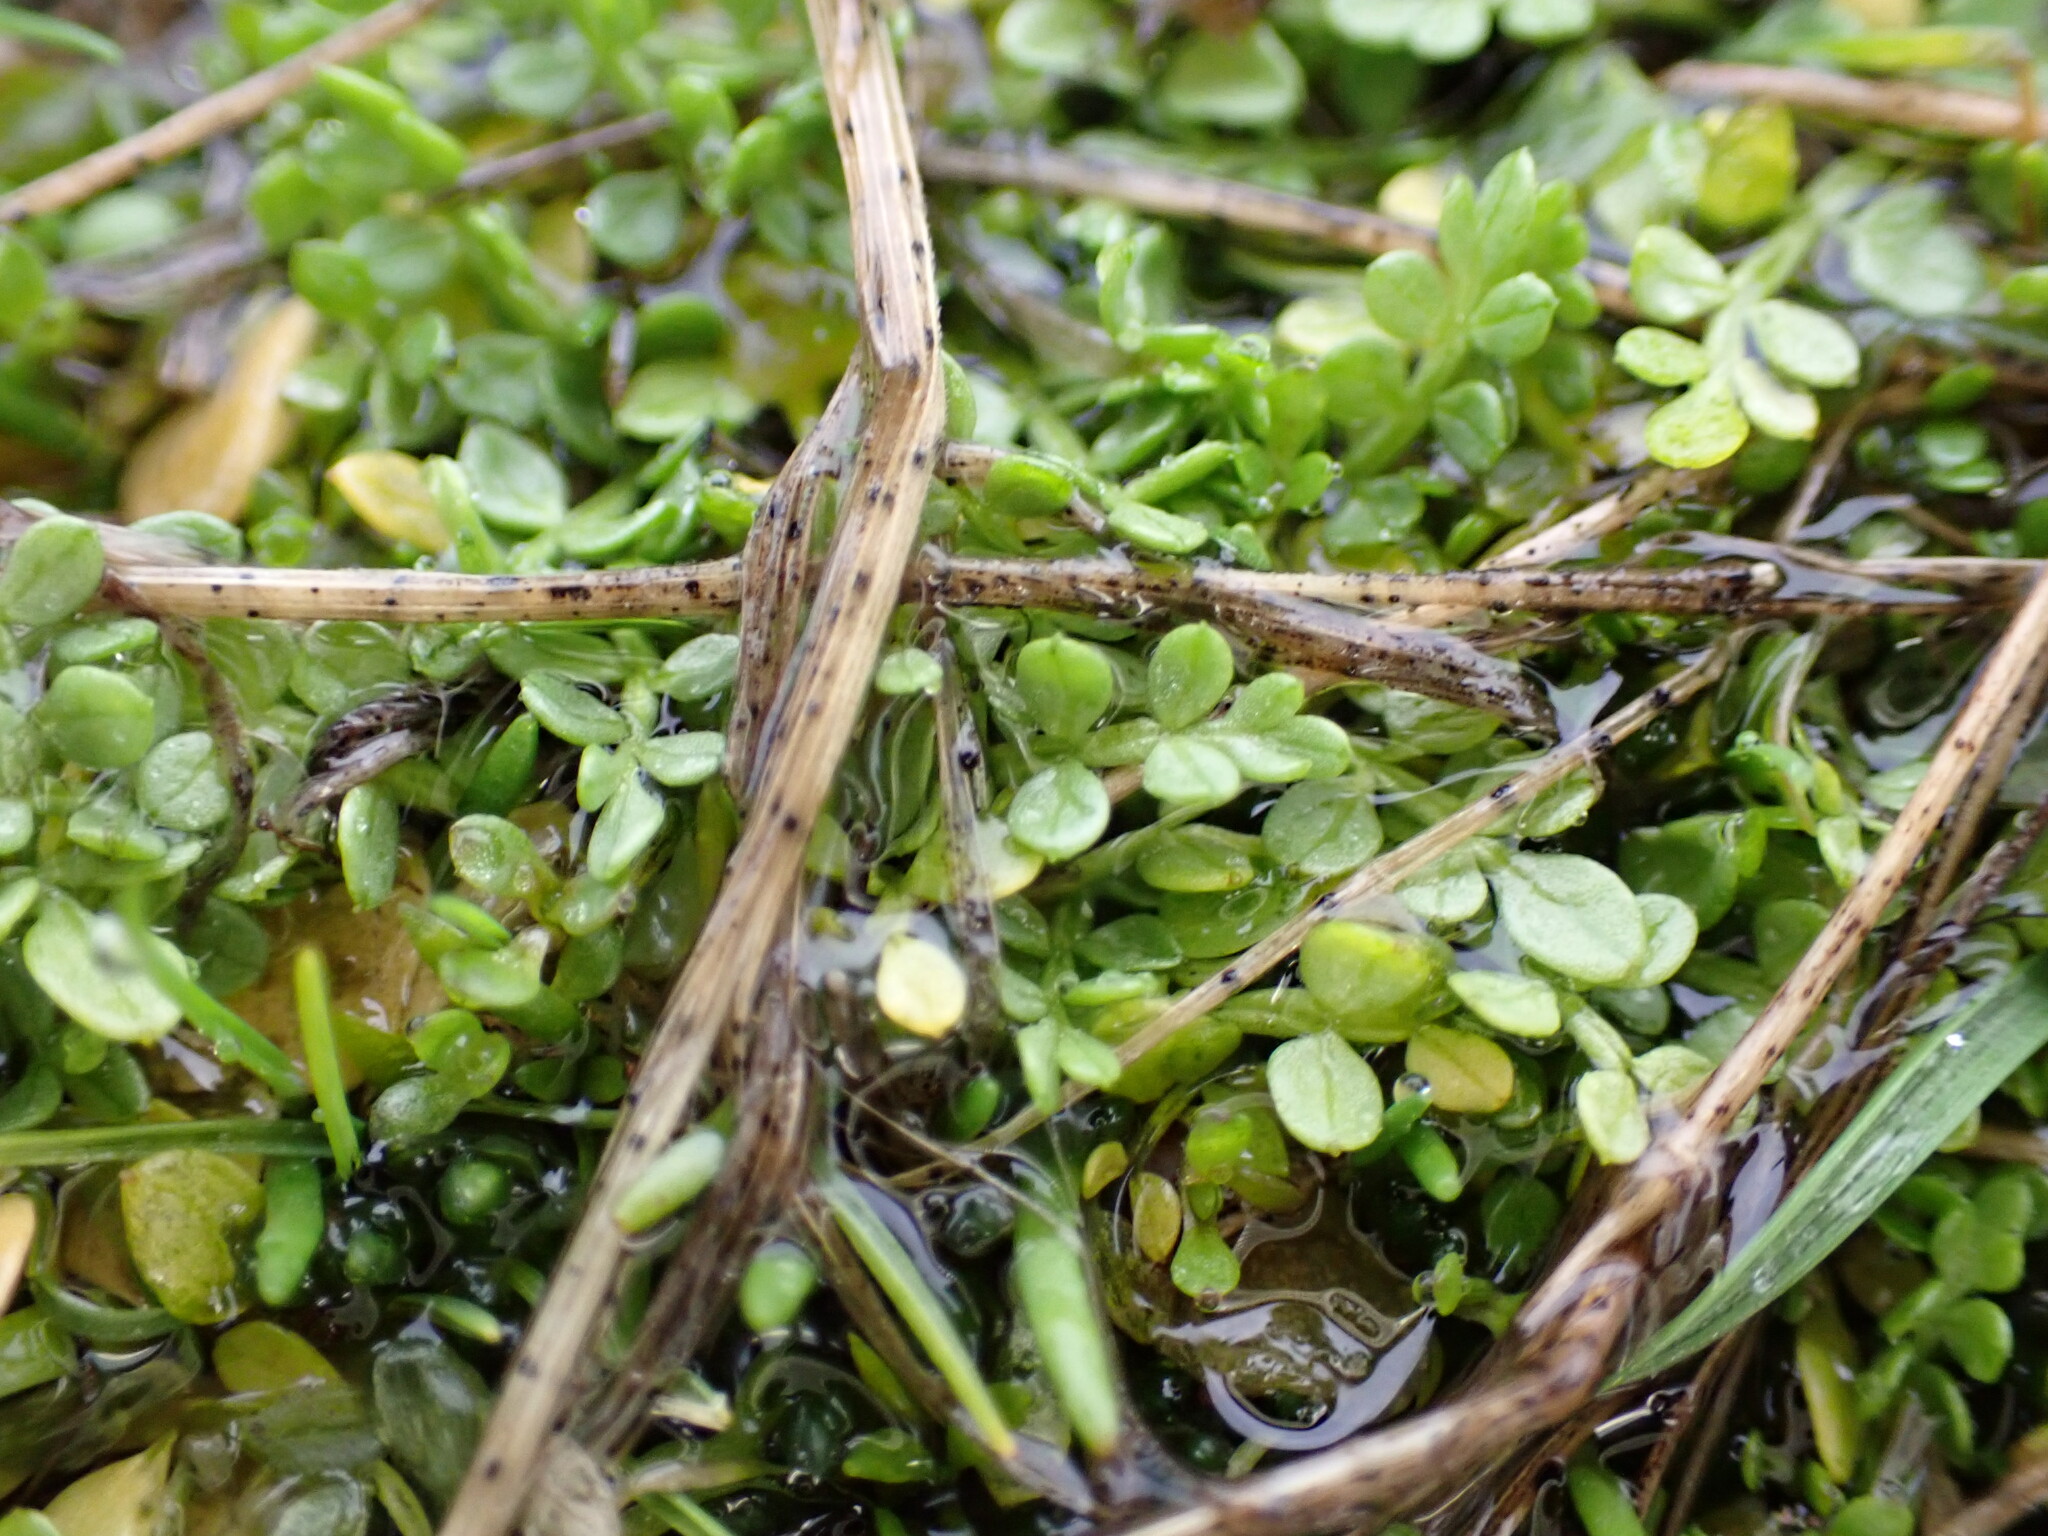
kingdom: Plantae
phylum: Tracheophyta
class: Magnoliopsida
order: Brassicales
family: Limnanthaceae
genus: Limnanthes
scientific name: Limnanthes macounii
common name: Macoun's meadowfoam
